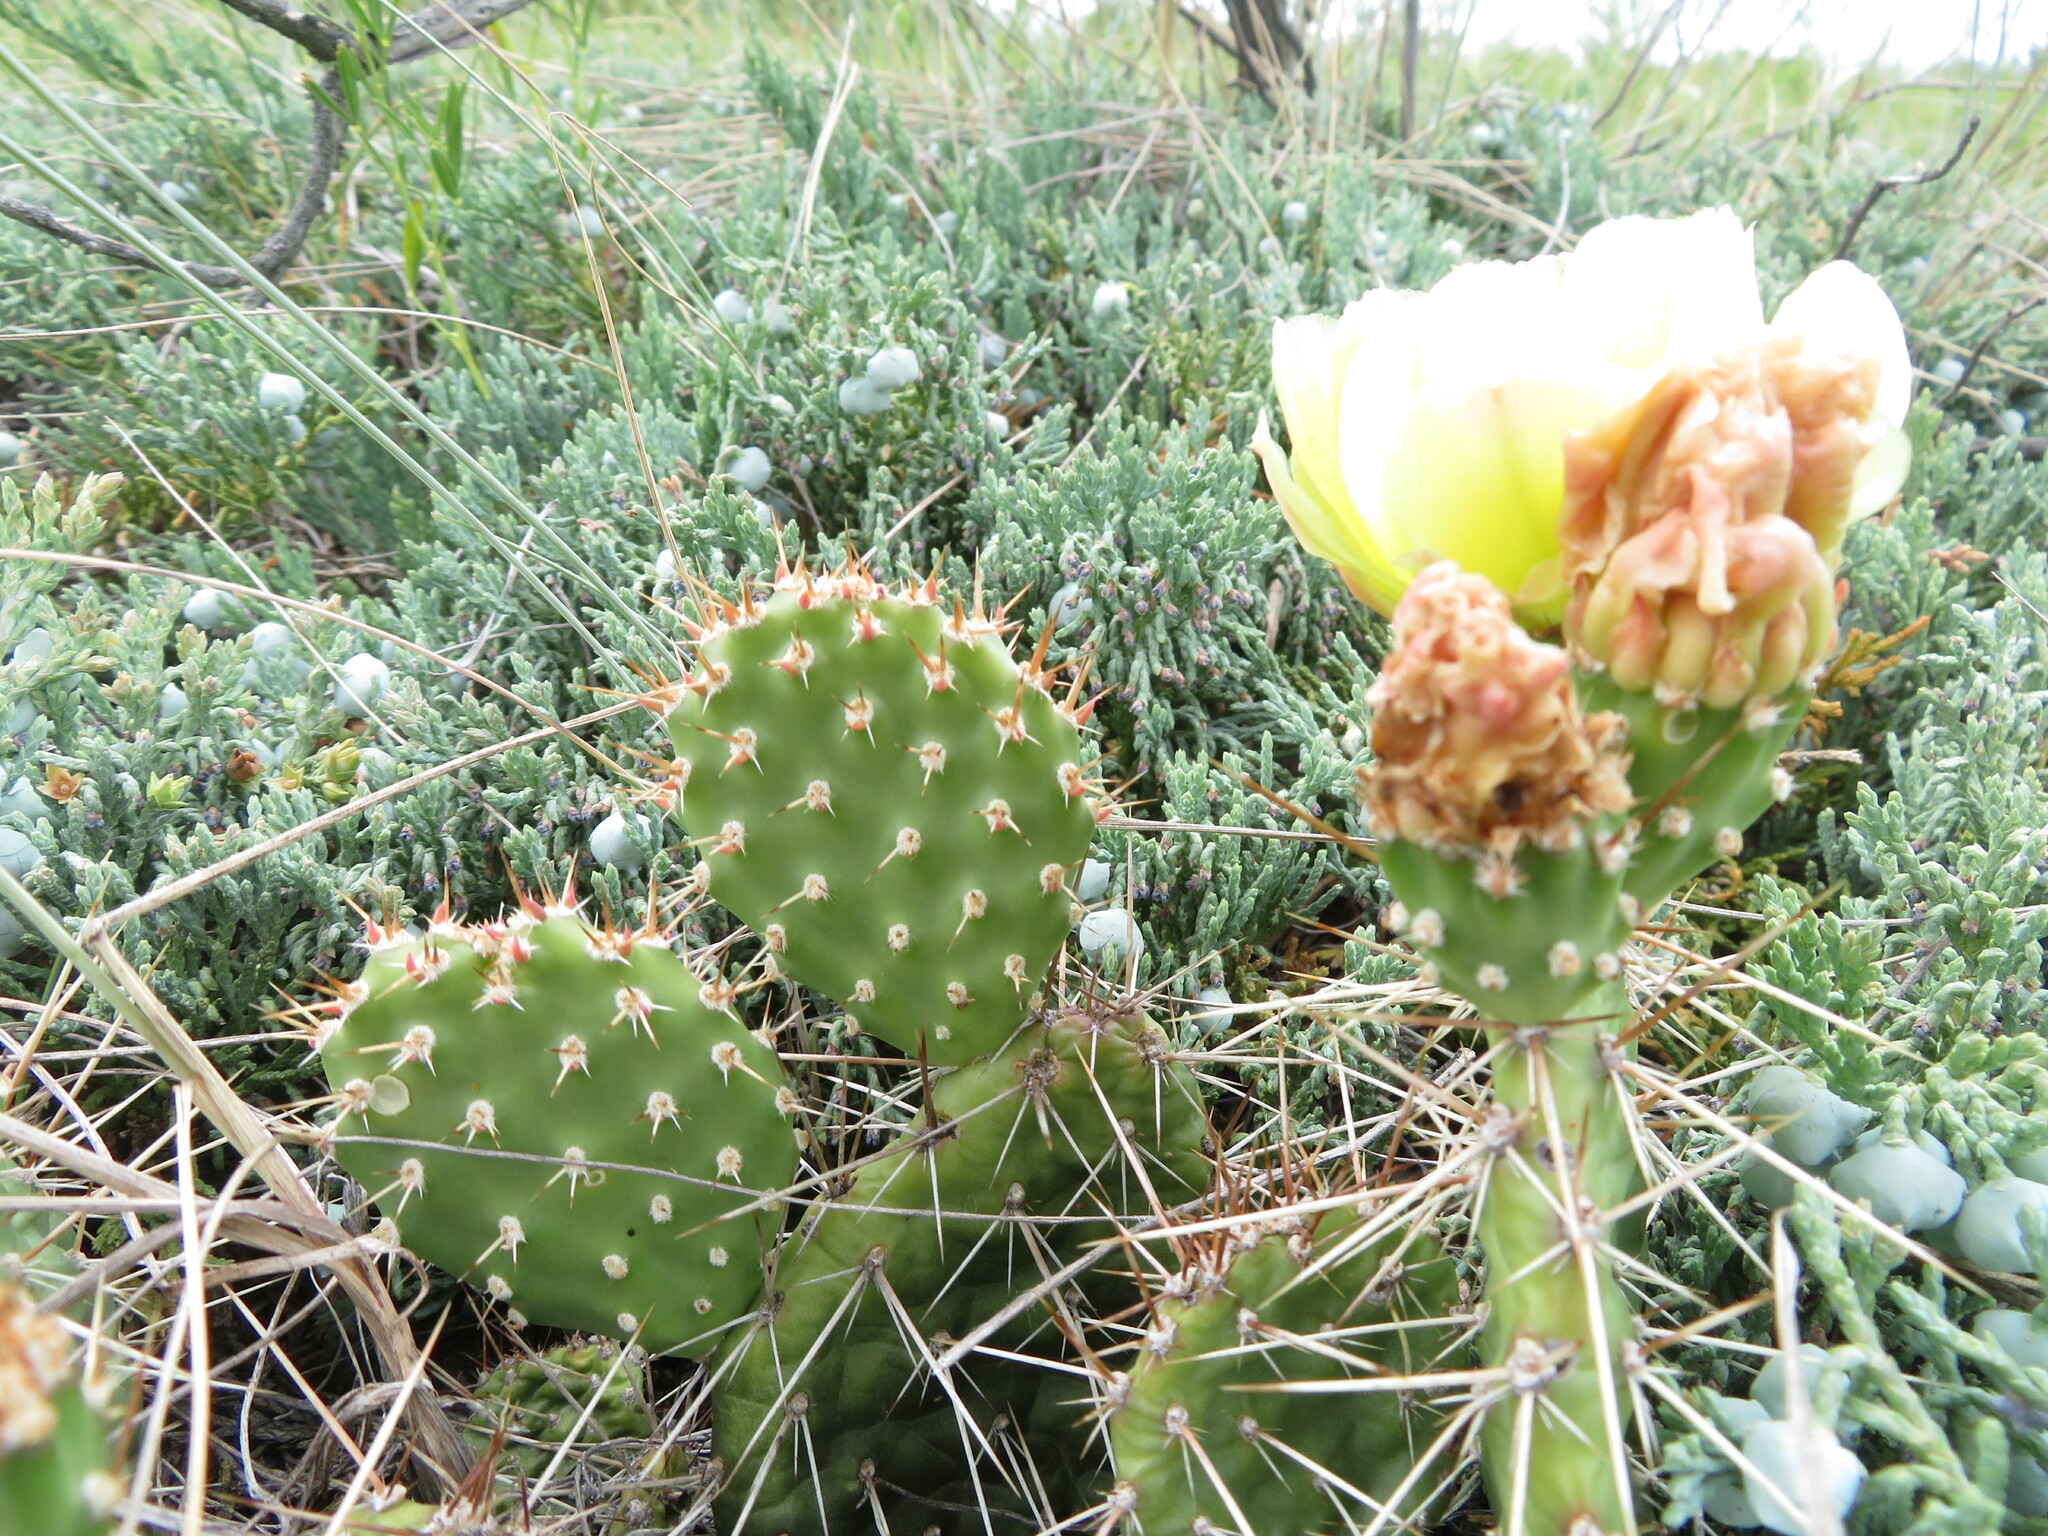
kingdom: Plantae
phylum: Tracheophyta
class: Magnoliopsida
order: Caryophyllales
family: Cactaceae
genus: Opuntia
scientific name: Opuntia polyacantha
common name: Plains prickly-pear
